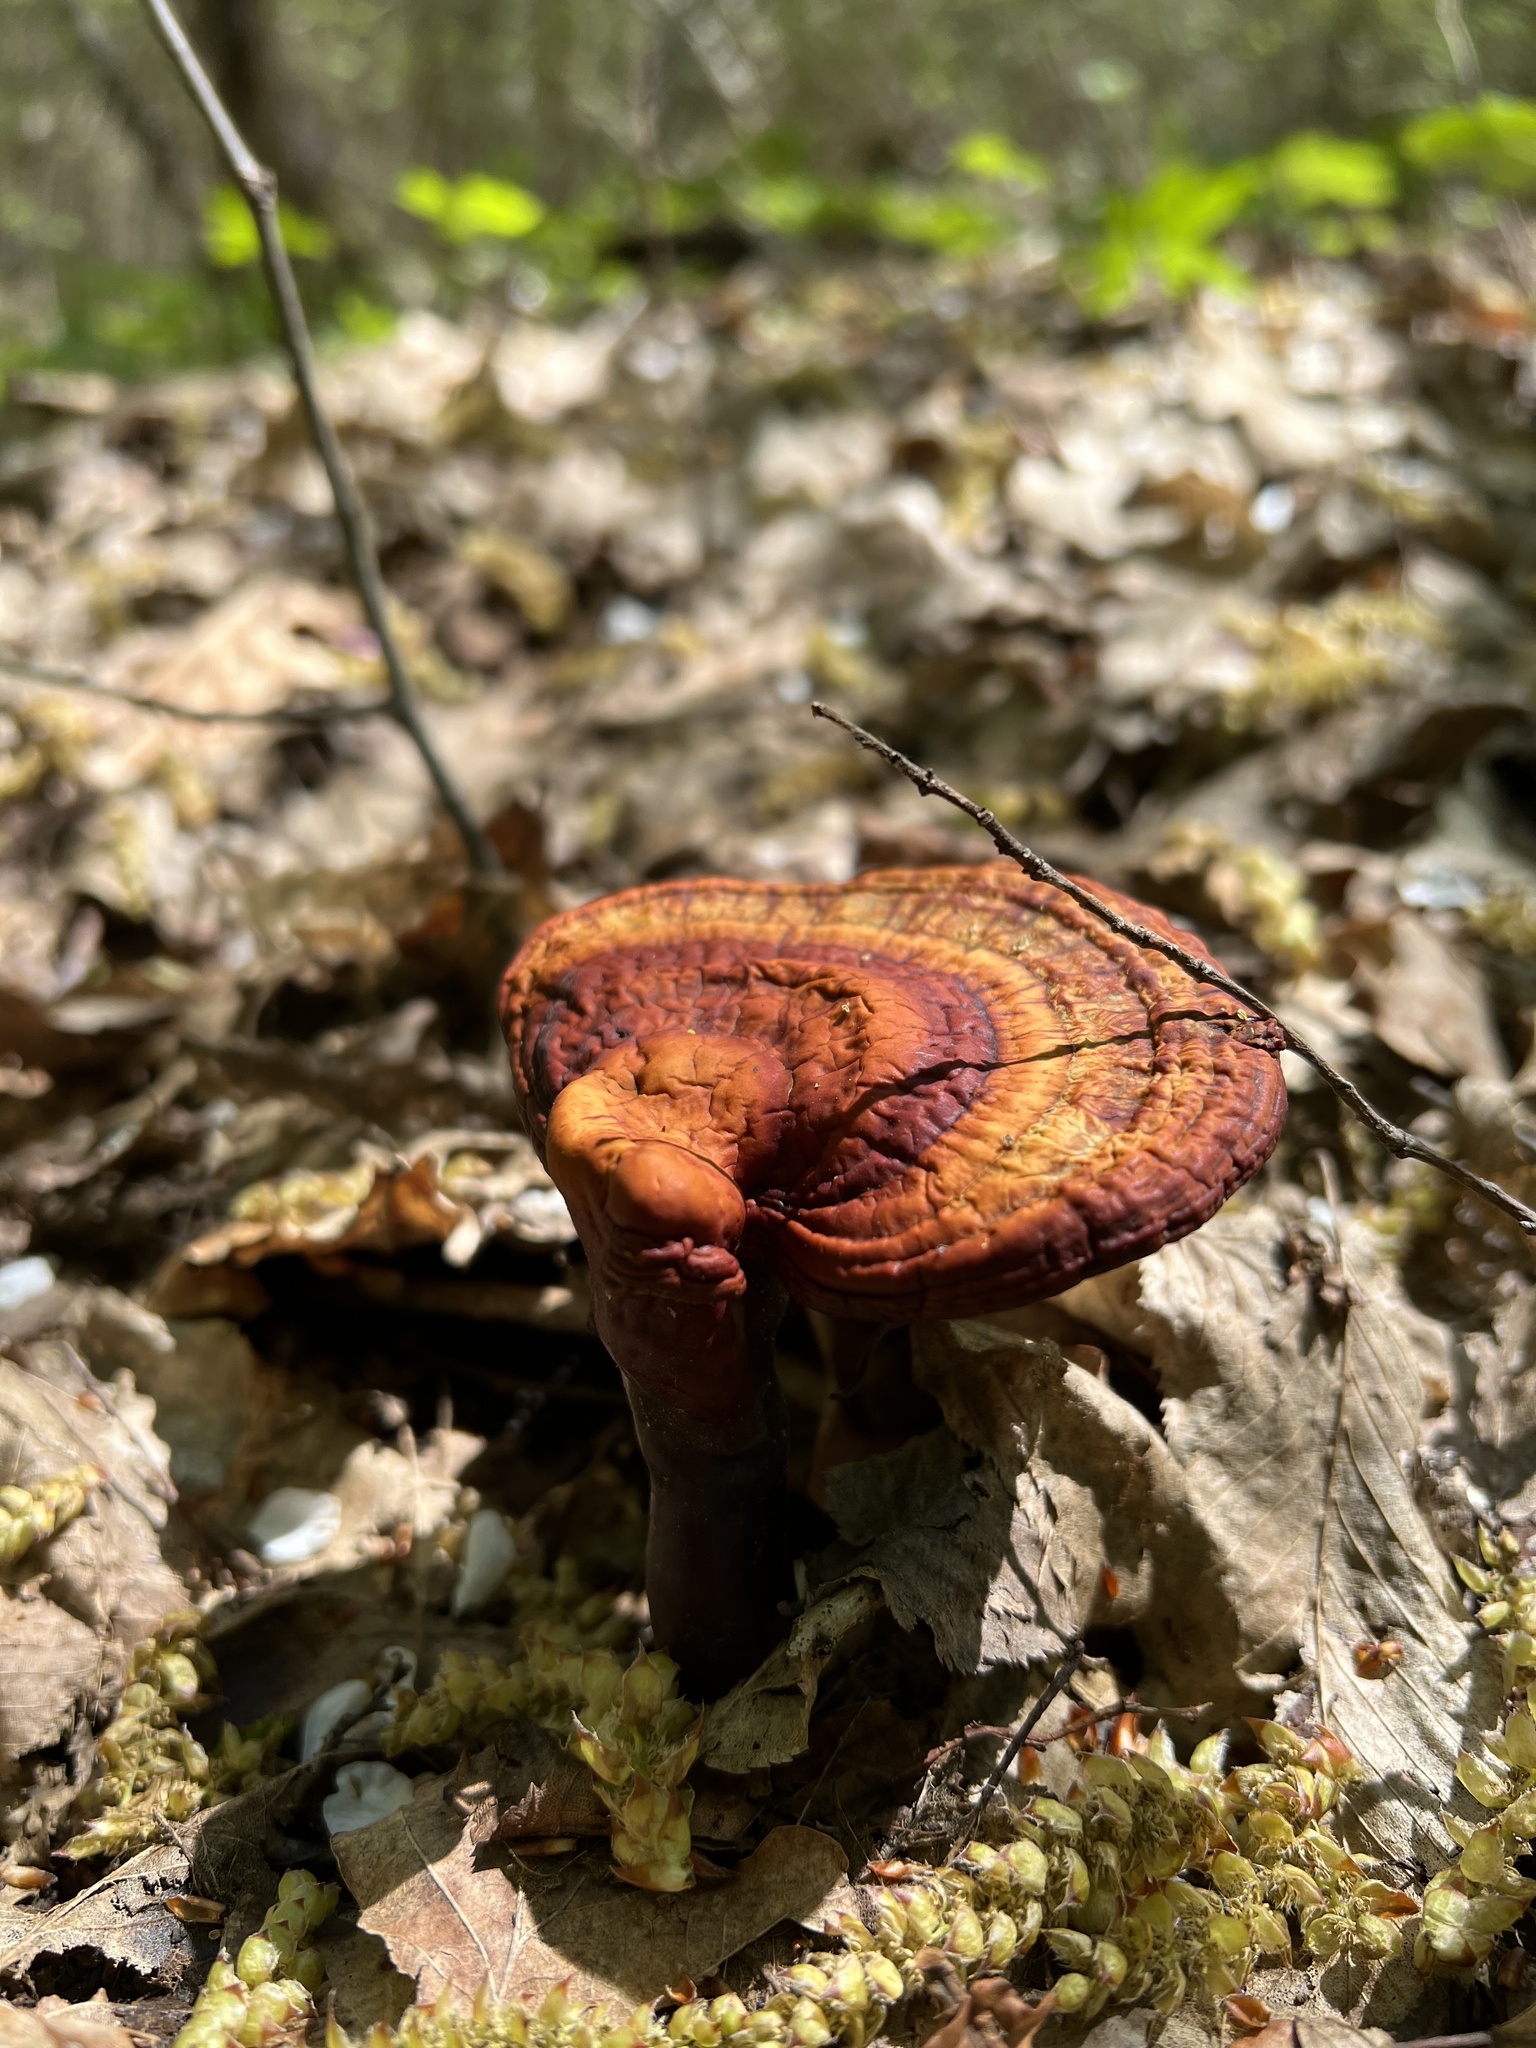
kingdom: Fungi
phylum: Basidiomycota
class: Agaricomycetes
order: Polyporales
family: Polyporaceae
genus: Ganoderma
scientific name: Ganoderma lucidum
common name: Lacquered bracket
